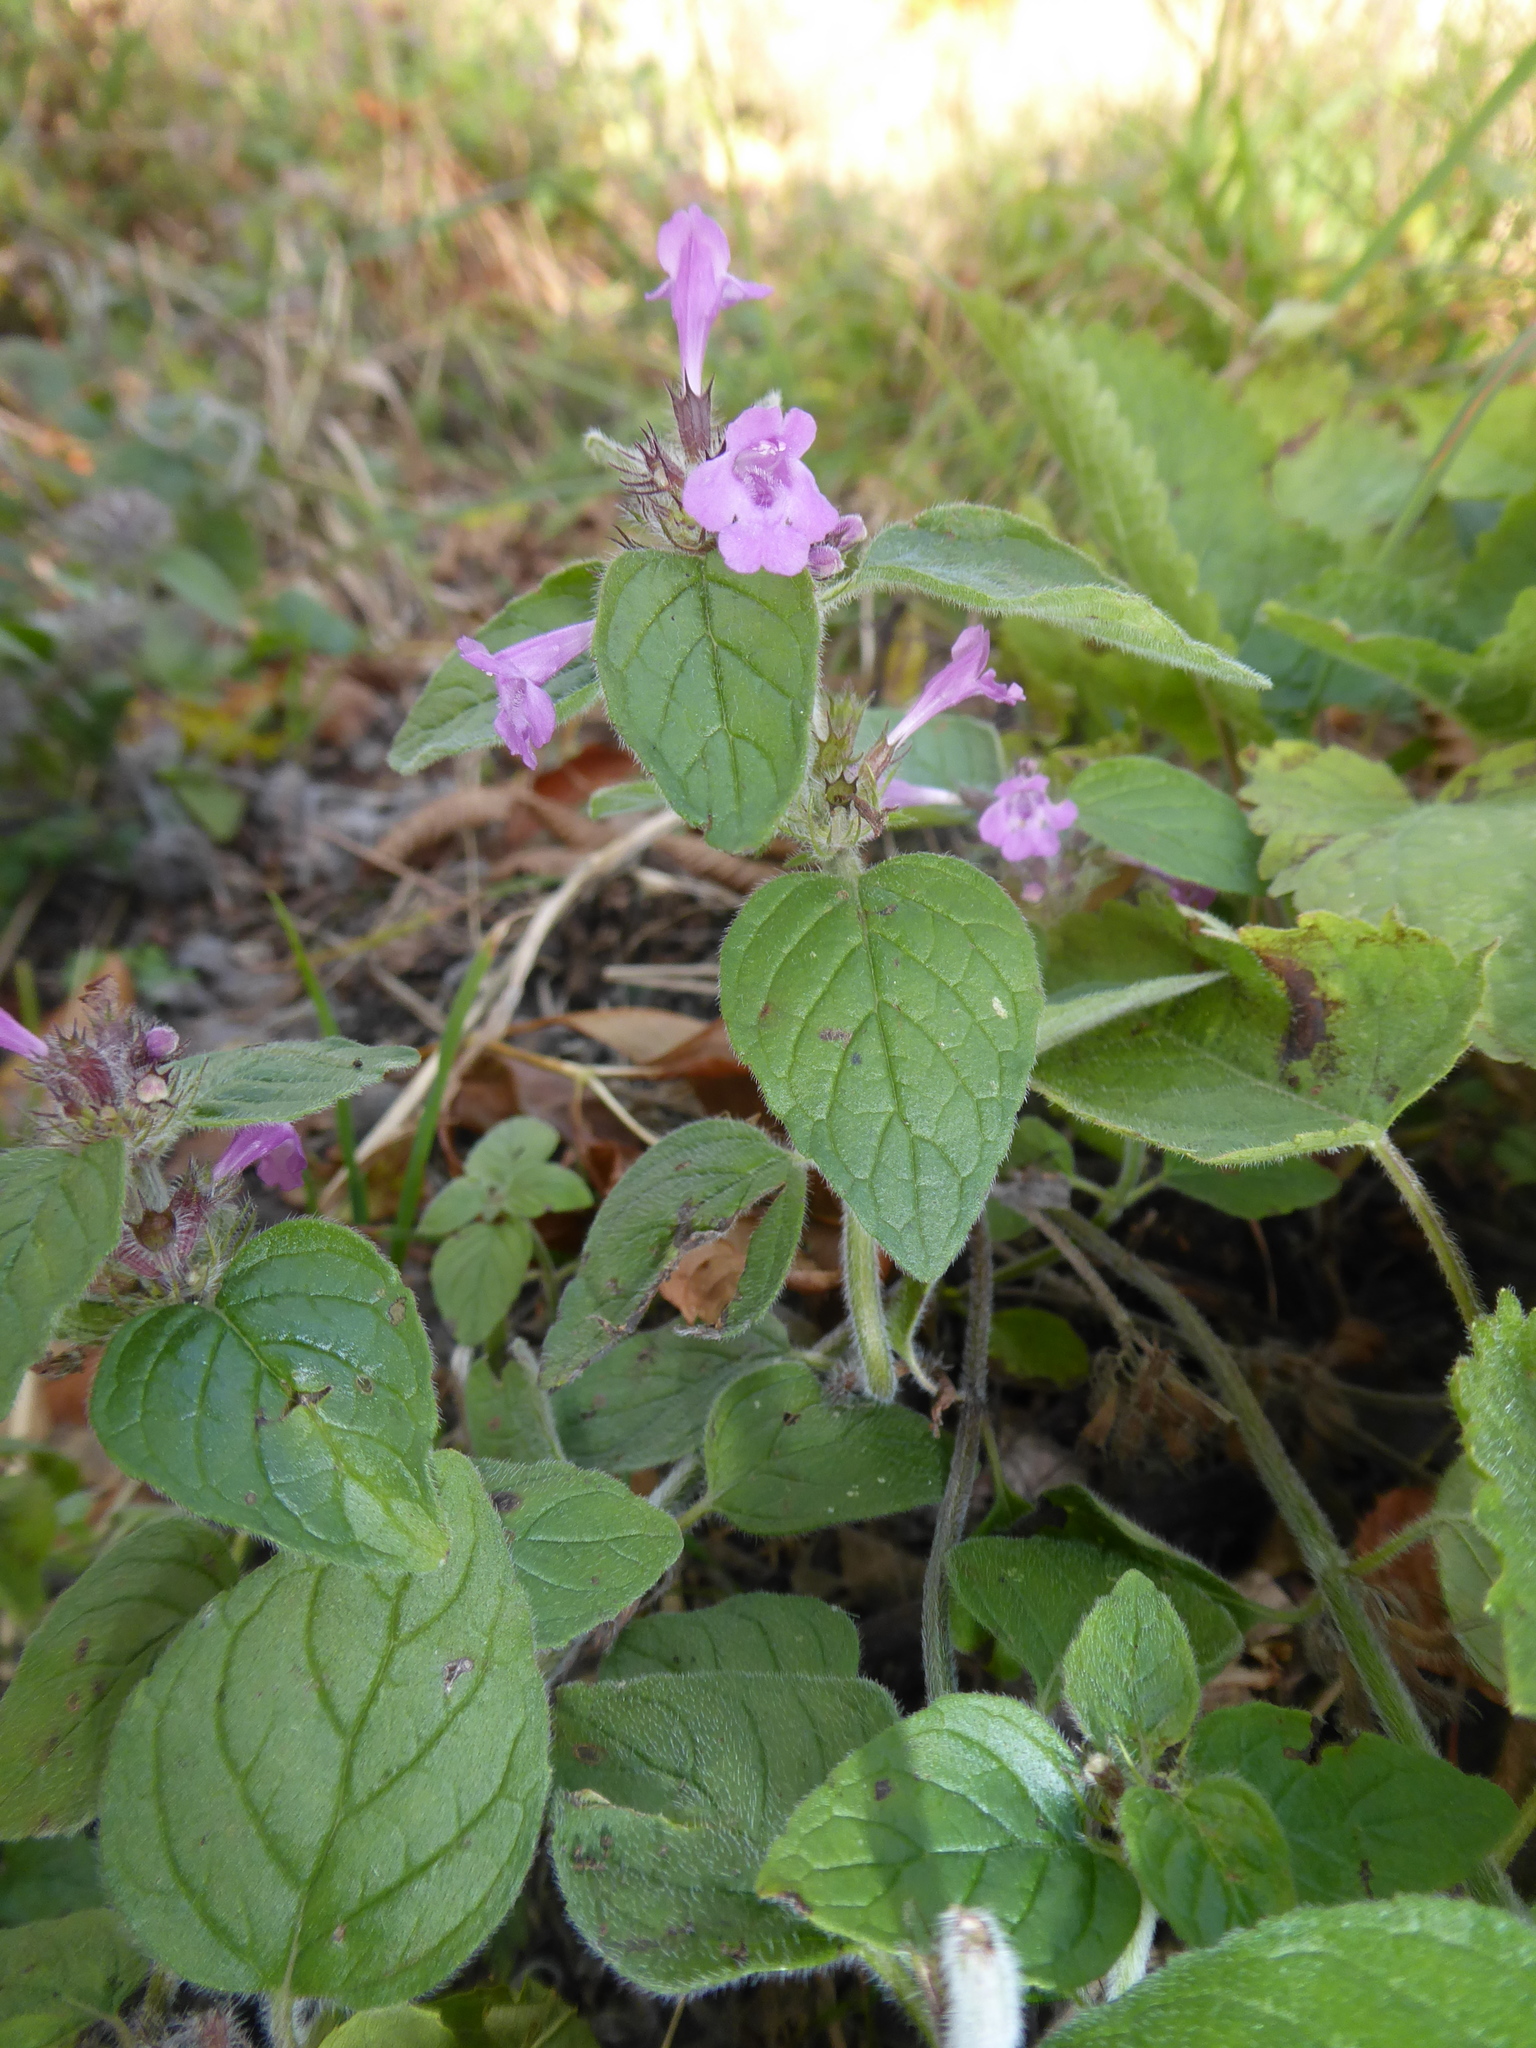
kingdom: Plantae
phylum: Tracheophyta
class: Magnoliopsida
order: Lamiales
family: Lamiaceae
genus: Clinopodium
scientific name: Clinopodium vulgare
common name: Wild basil
